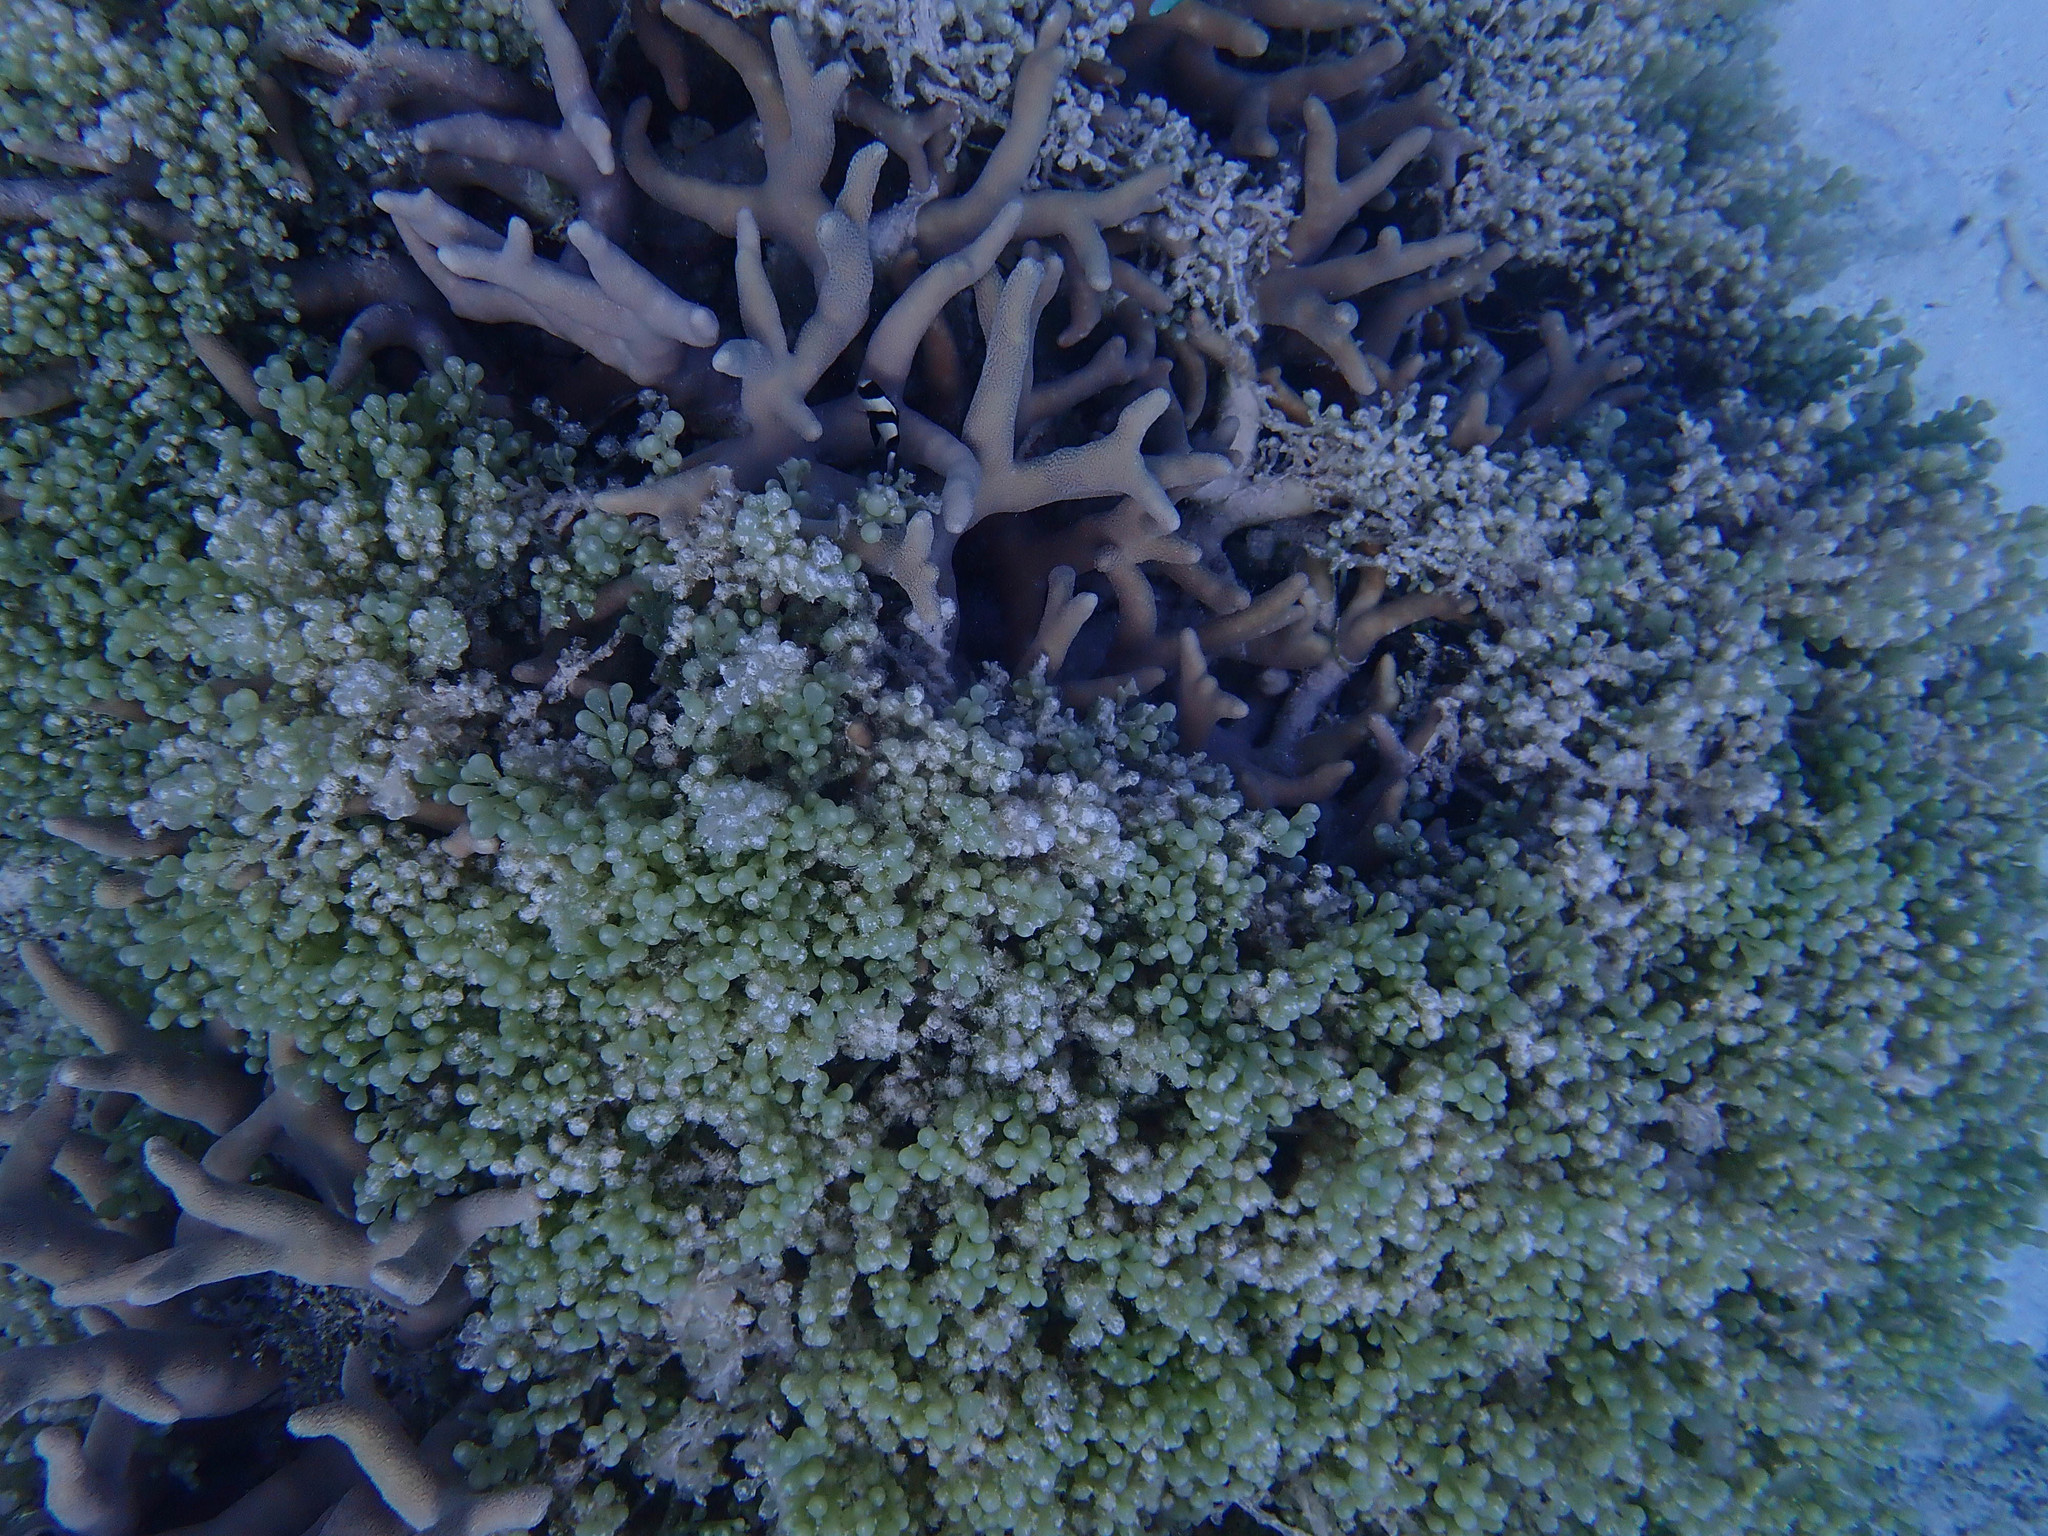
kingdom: Plantae
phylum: Chlorophyta
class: Ulvophyceae
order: Bryopsidales
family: Caulerpaceae
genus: Caulerpa
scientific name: Caulerpa racemosa
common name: Green grape algae
